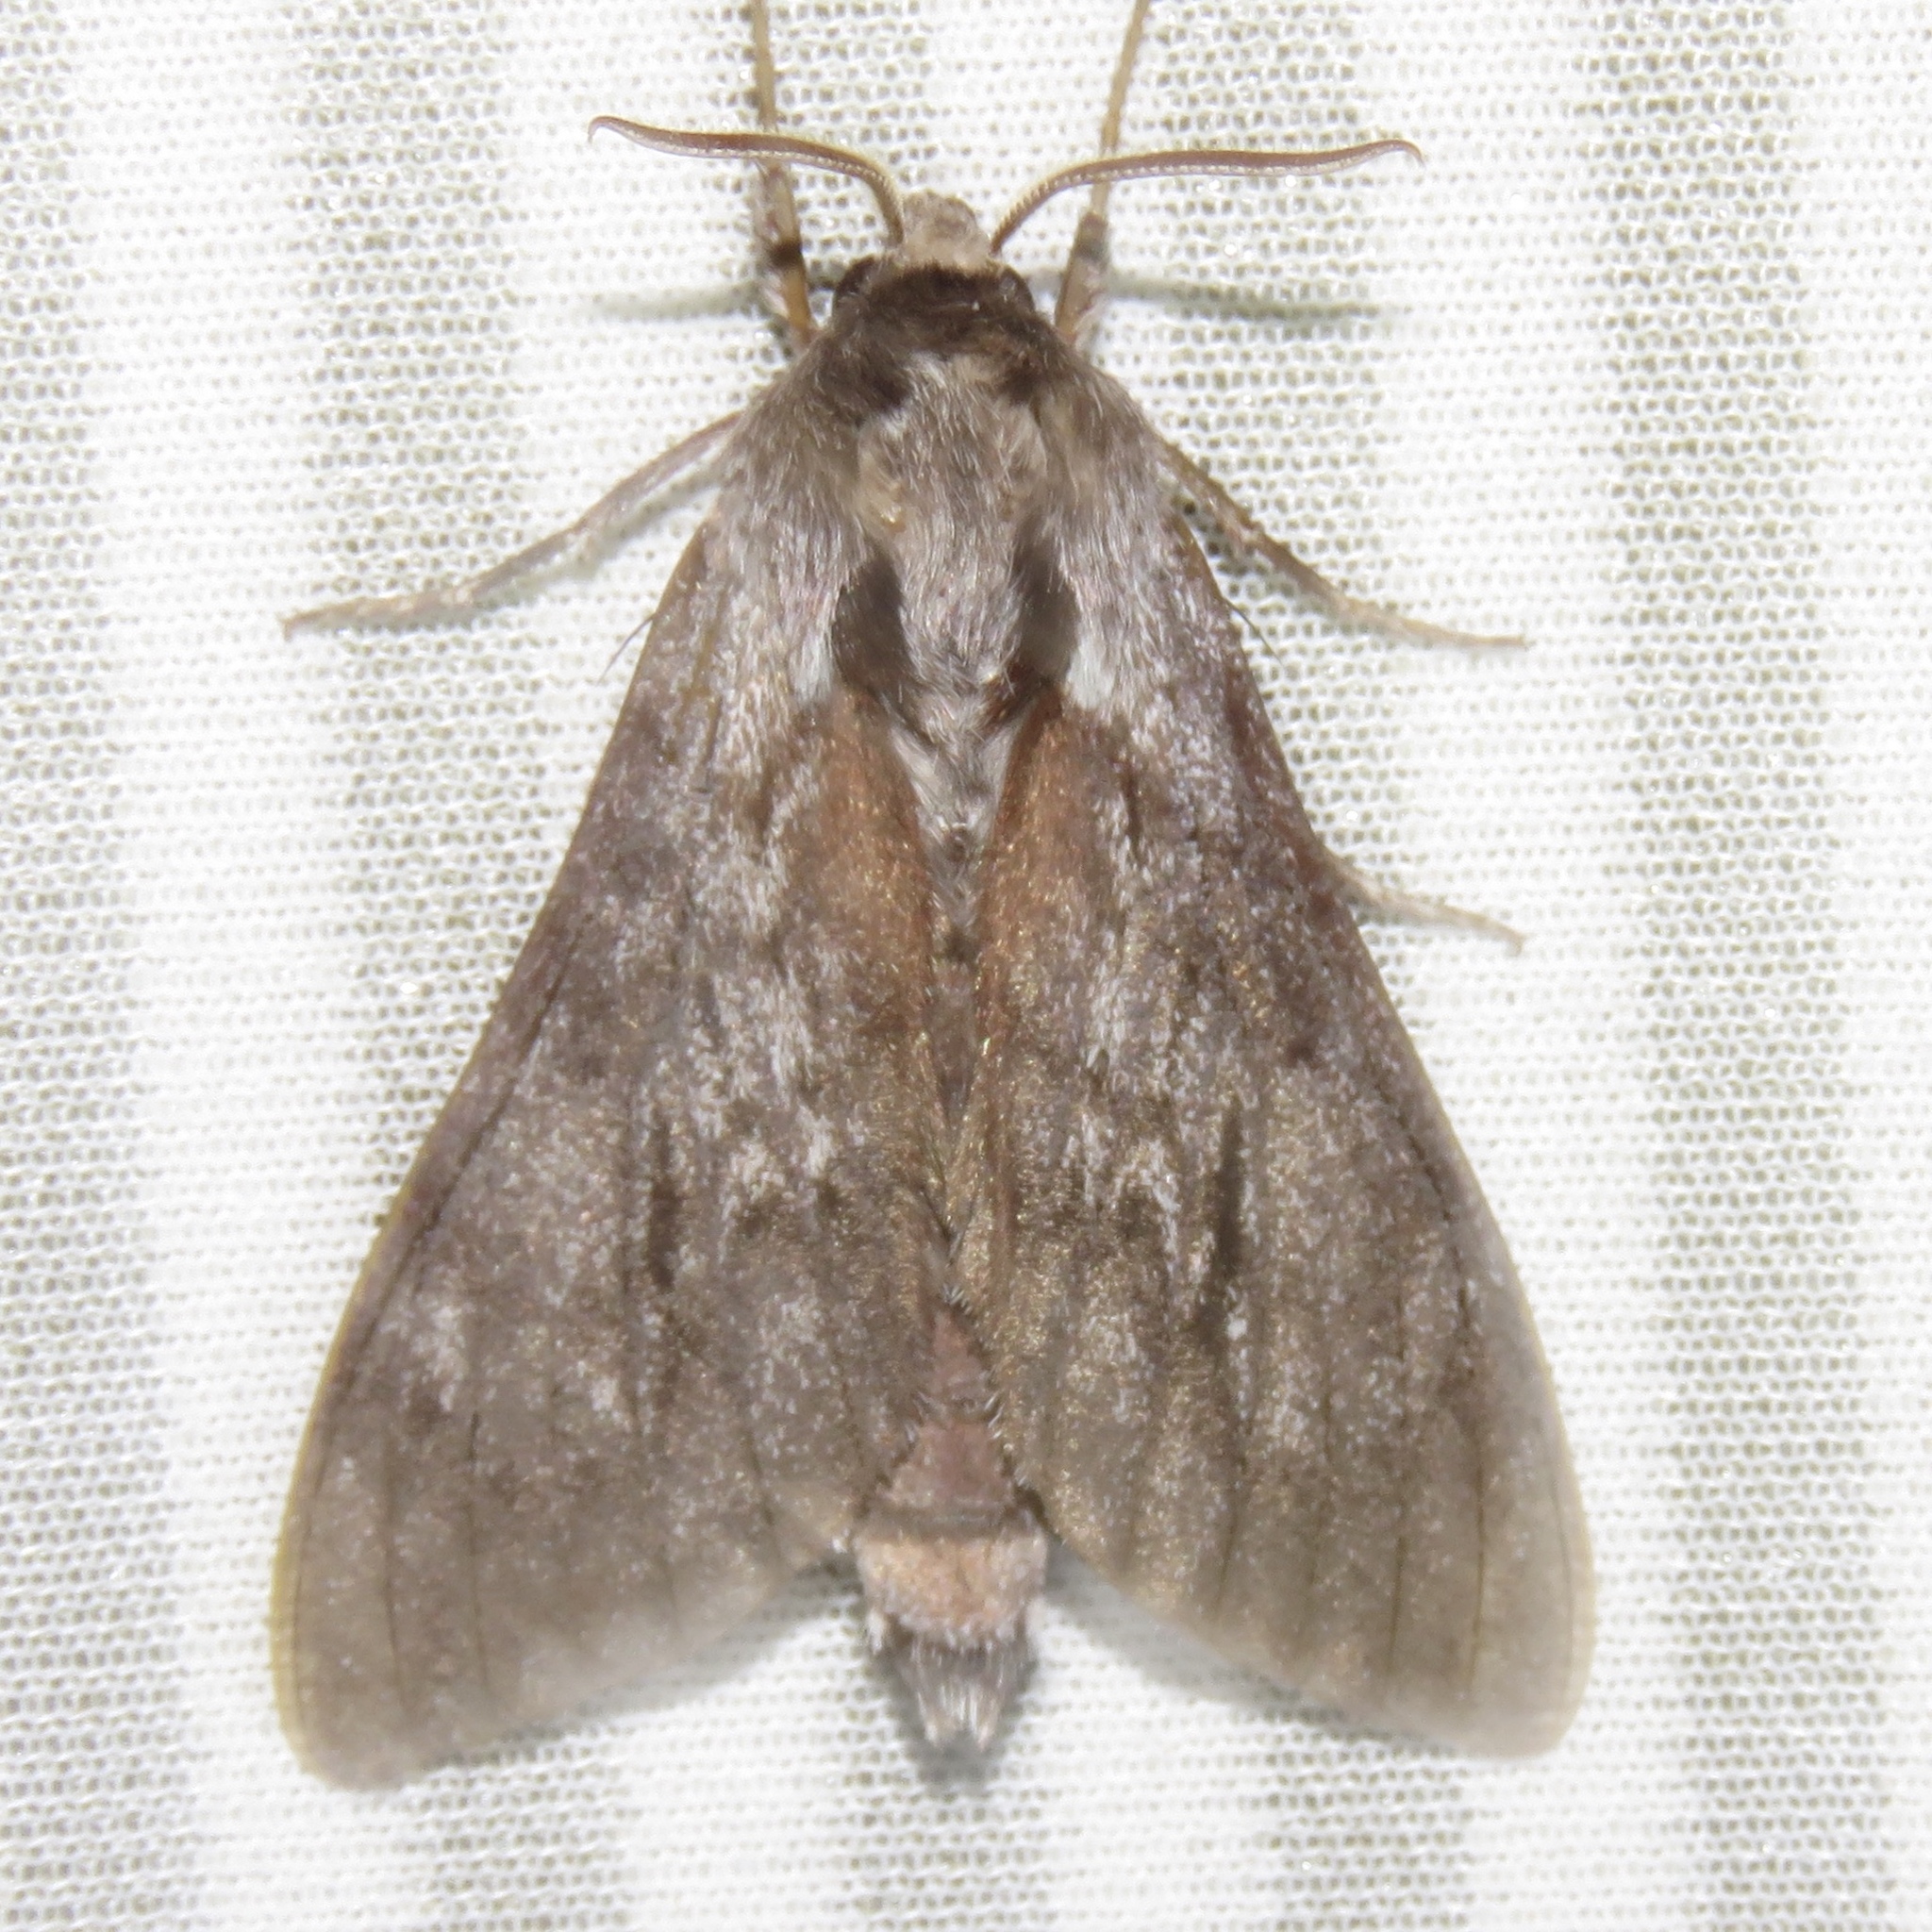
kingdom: Animalia
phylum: Arthropoda
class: Insecta
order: Lepidoptera
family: Sphingidae
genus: Lapara
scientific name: Lapara bombycoides
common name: Northern pine sphinx
